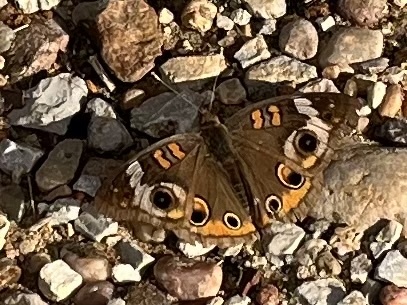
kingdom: Animalia
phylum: Arthropoda
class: Insecta
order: Lepidoptera
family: Nymphalidae
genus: Junonia
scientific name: Junonia coenia
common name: Common buckeye
